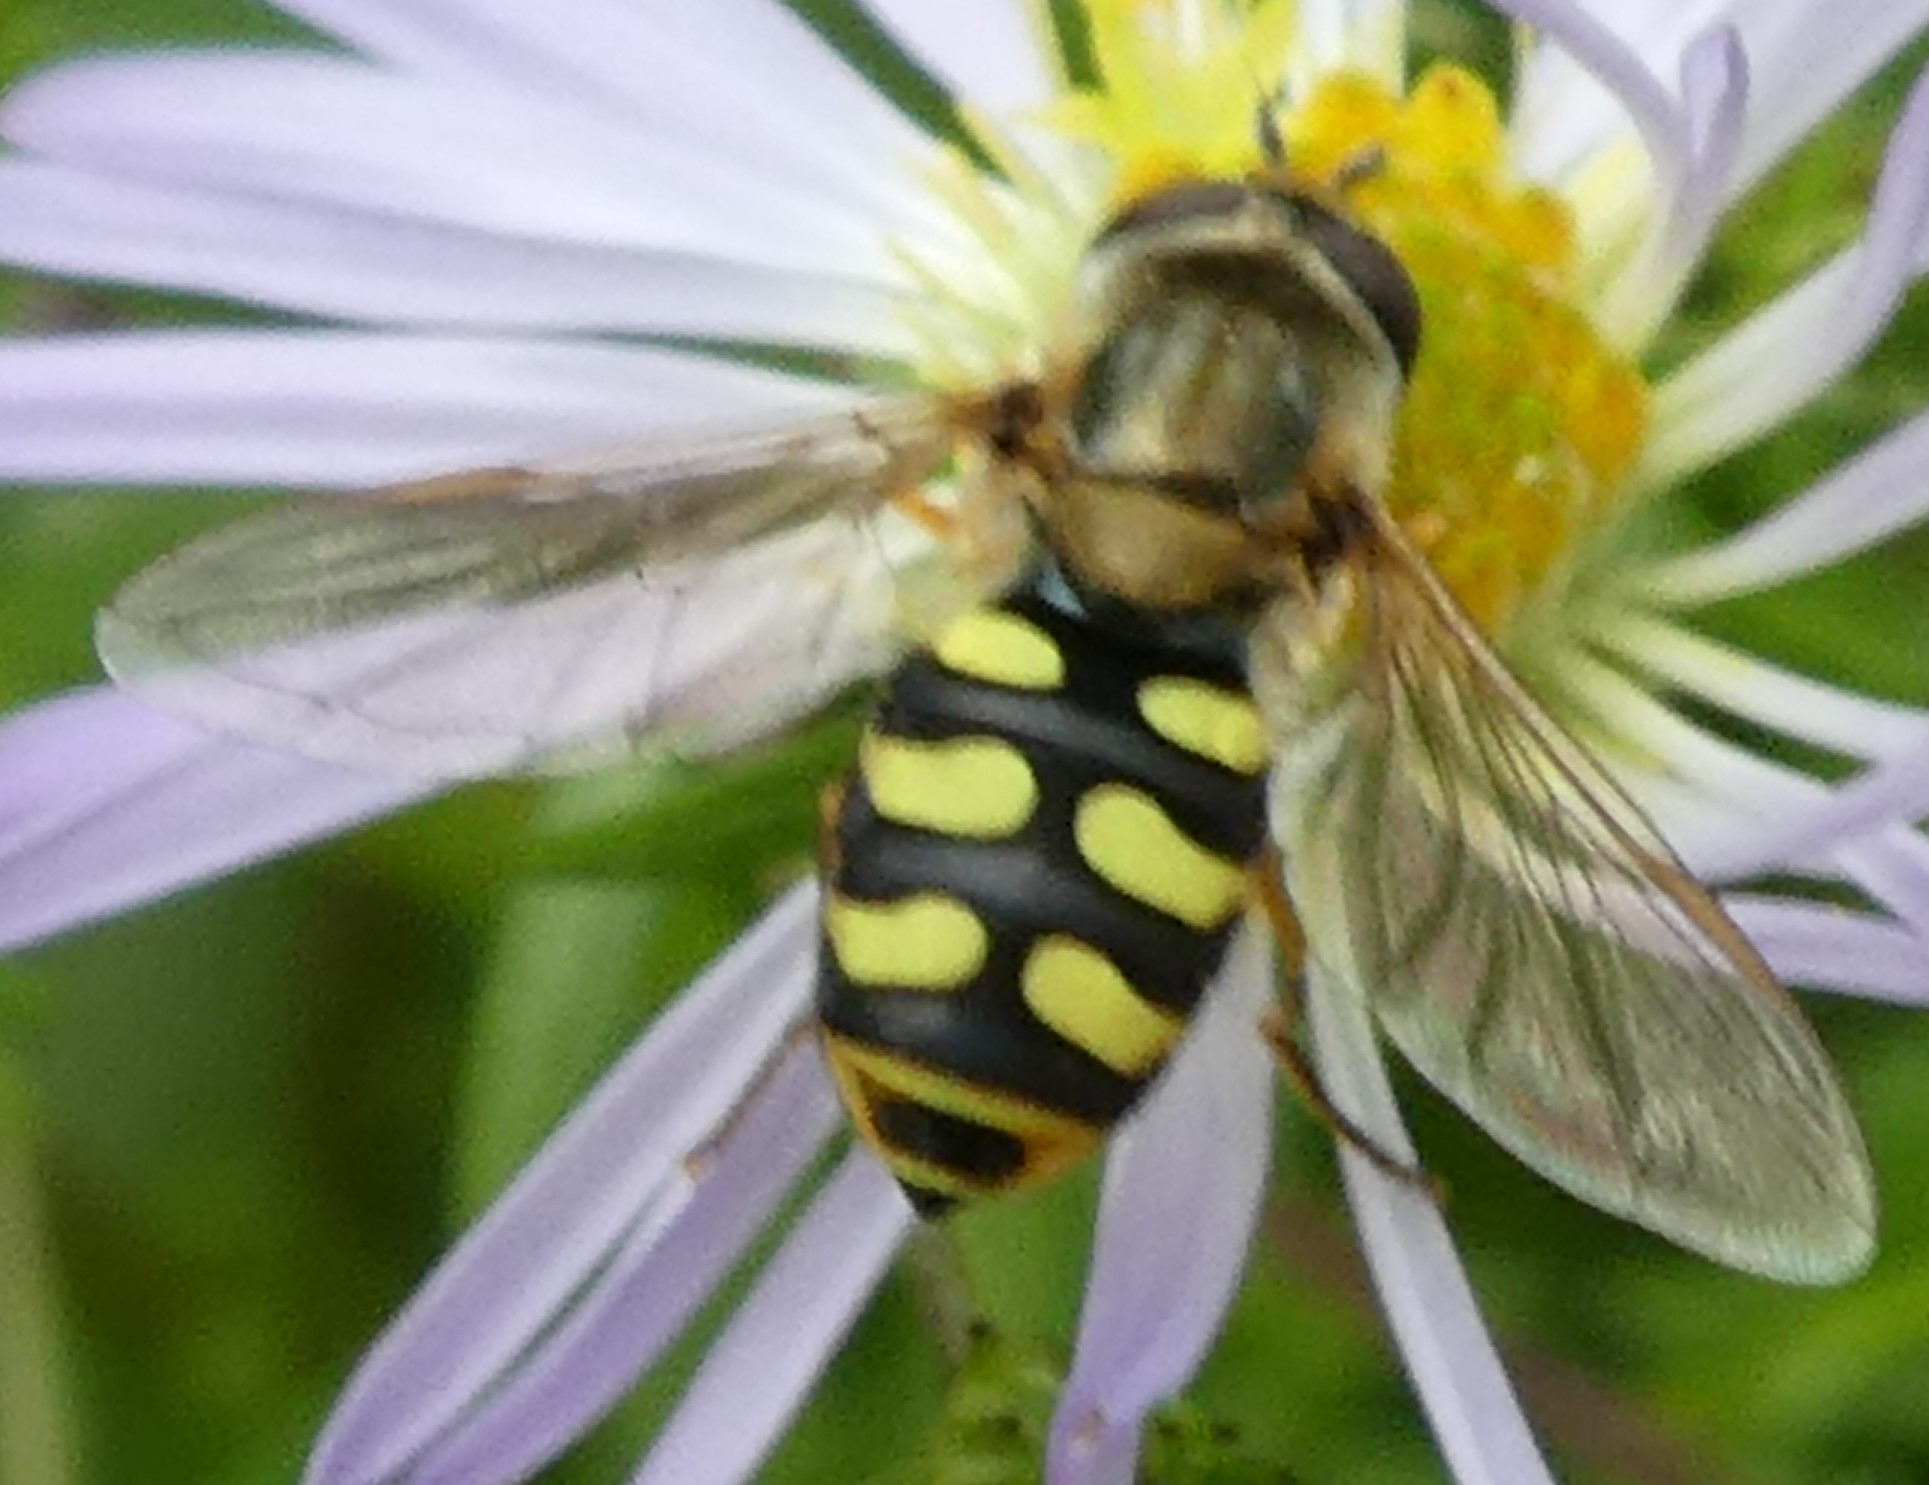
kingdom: Animalia
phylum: Arthropoda
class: Insecta
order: Diptera
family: Syrphidae
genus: Eupeodes
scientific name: Eupeodes corollae
